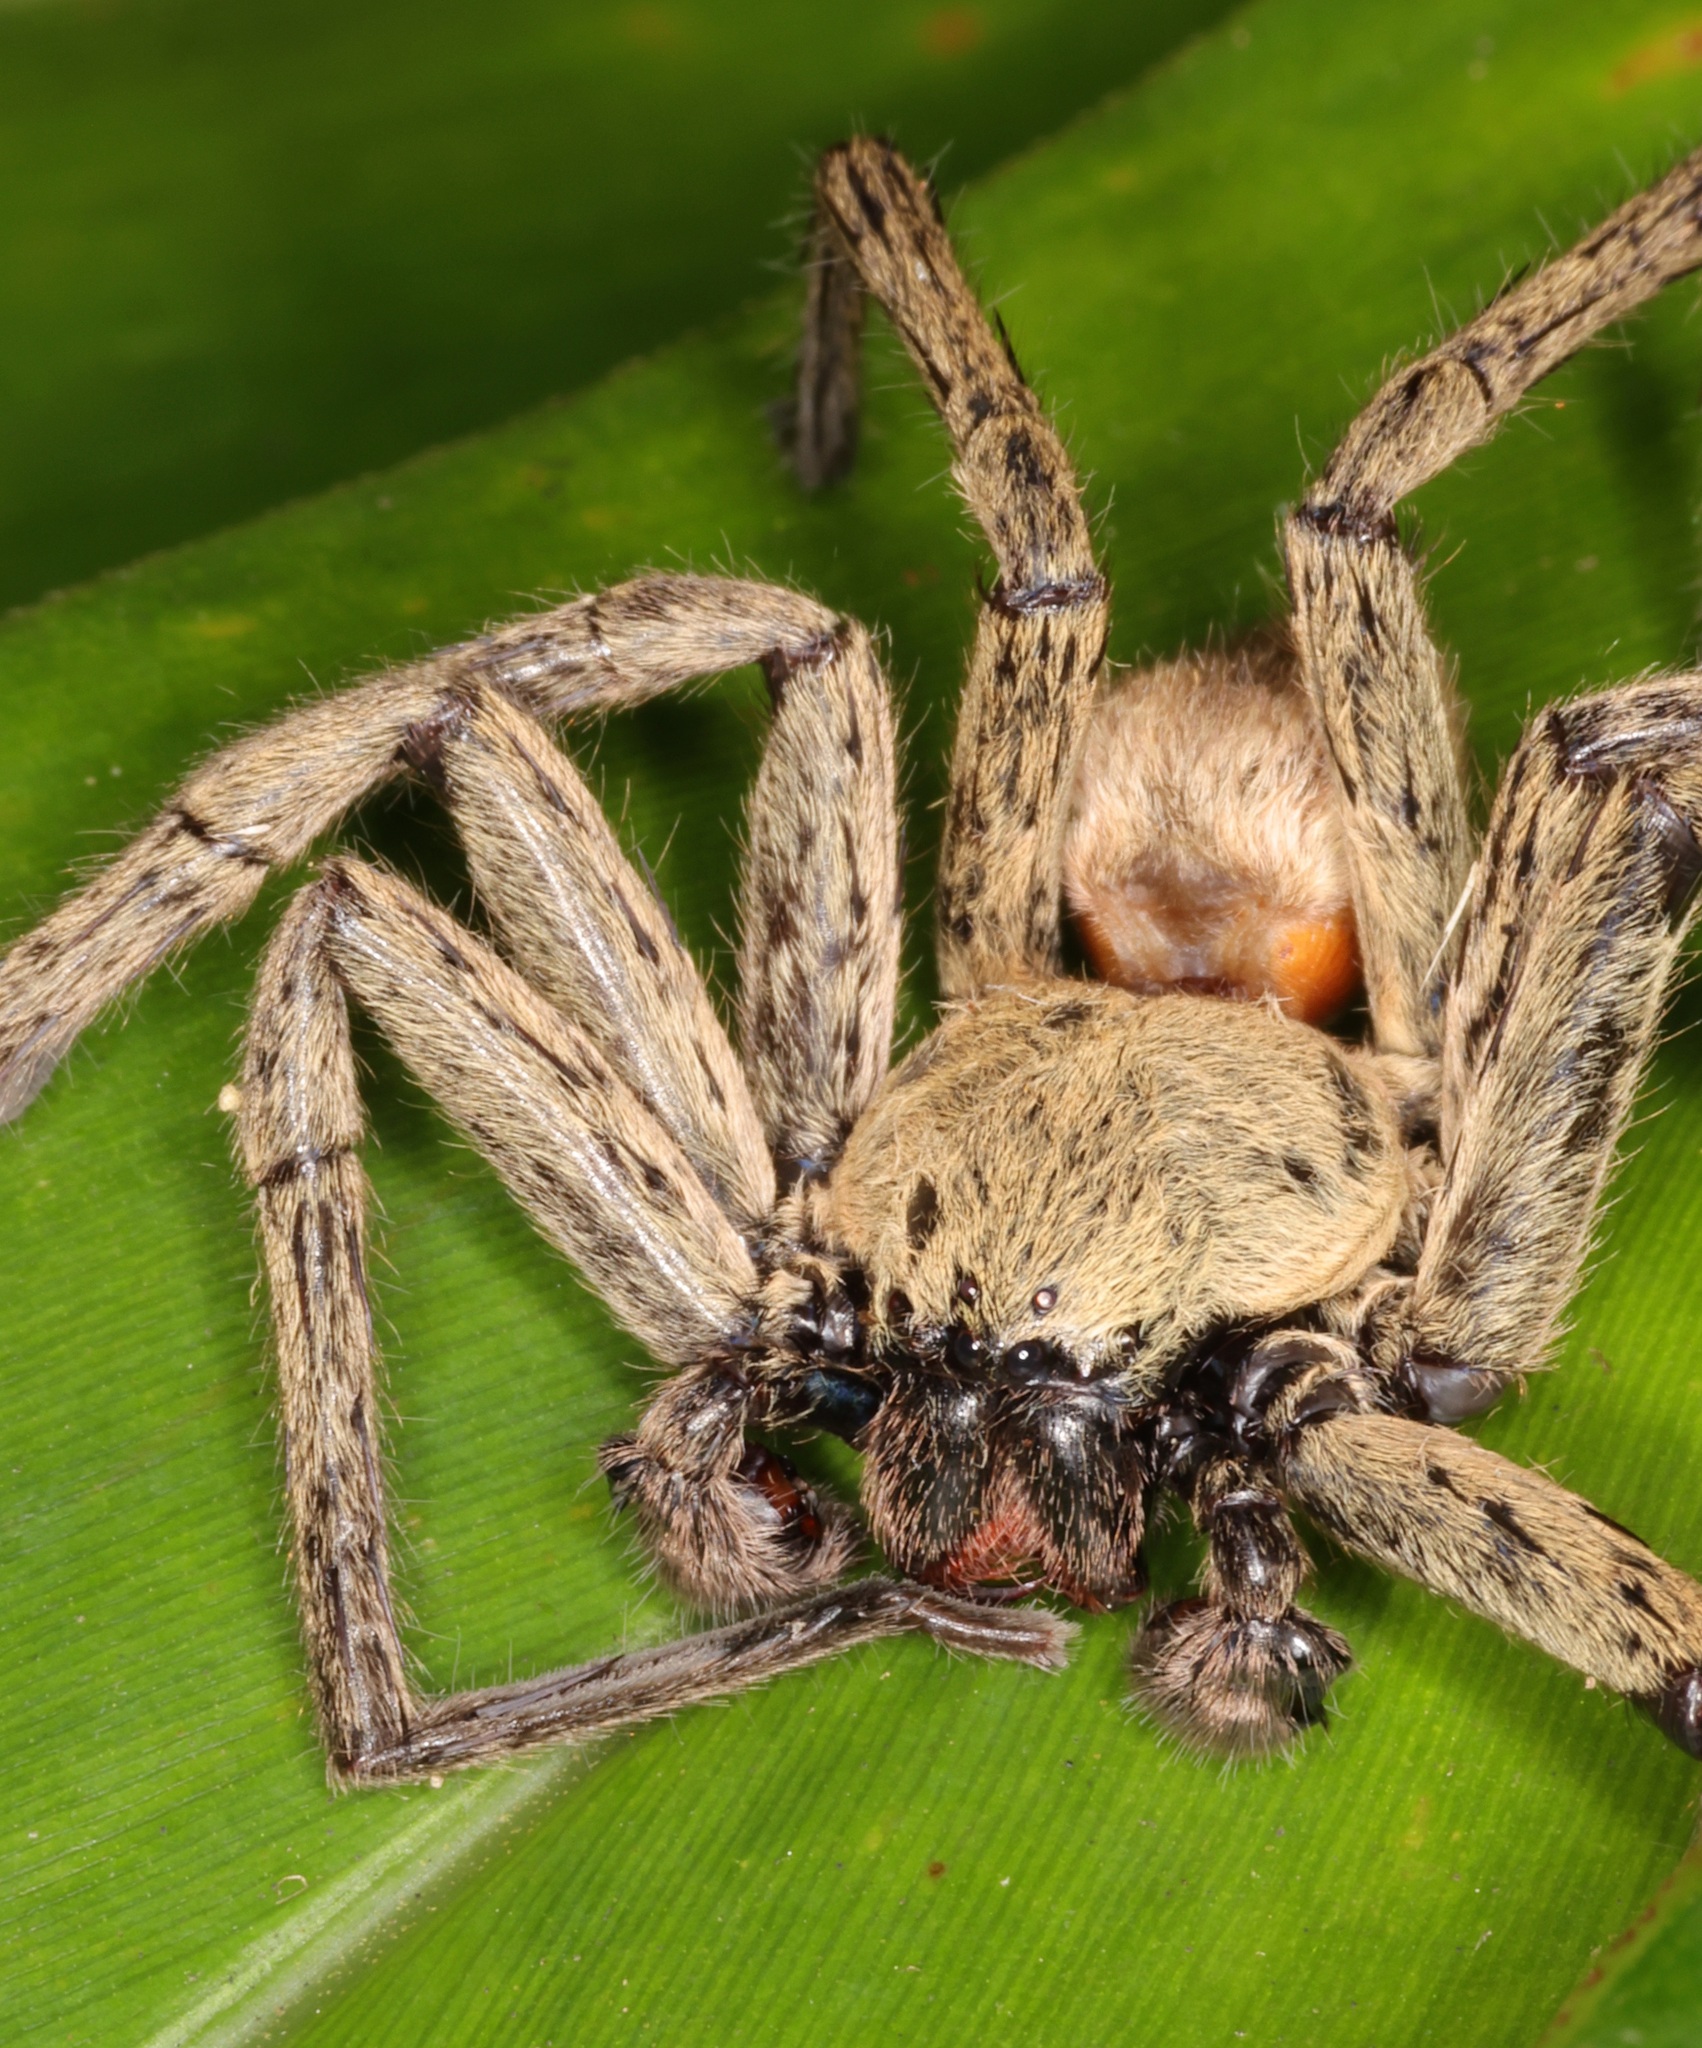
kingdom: Animalia
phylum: Arthropoda
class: Arachnida
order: Araneae
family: Sparassidae
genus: Thelcticopis
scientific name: Thelcticopis severa
